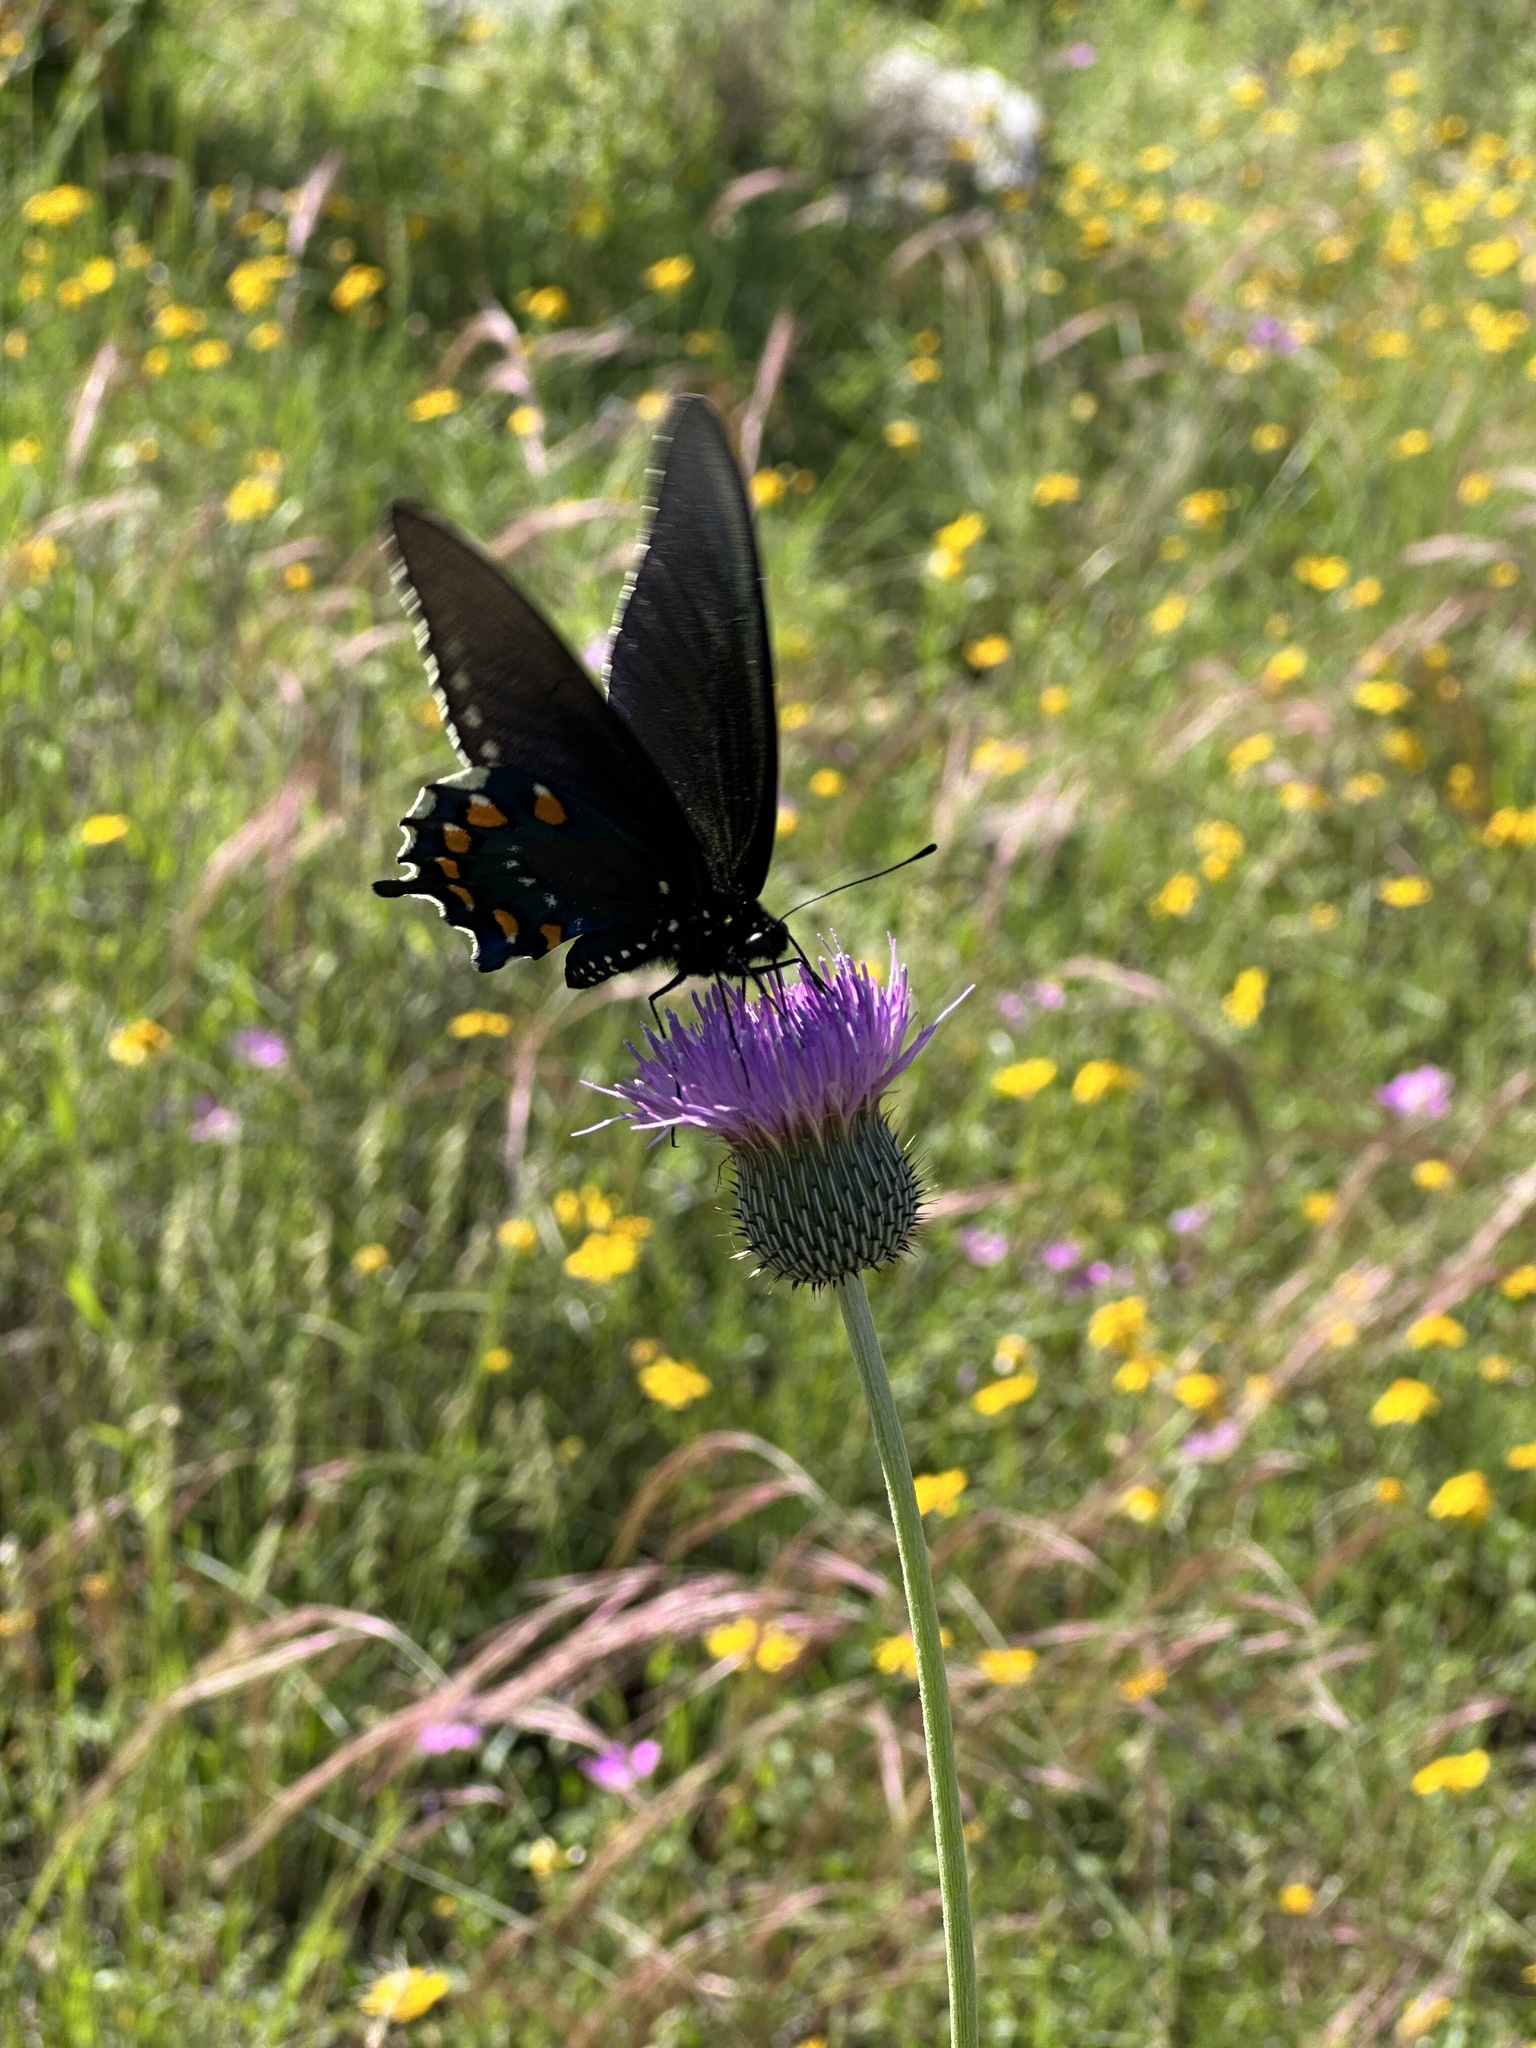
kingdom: Animalia
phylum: Arthropoda
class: Insecta
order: Lepidoptera
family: Papilionidae
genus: Battus
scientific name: Battus philenor
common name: Pipevine swallowtail
